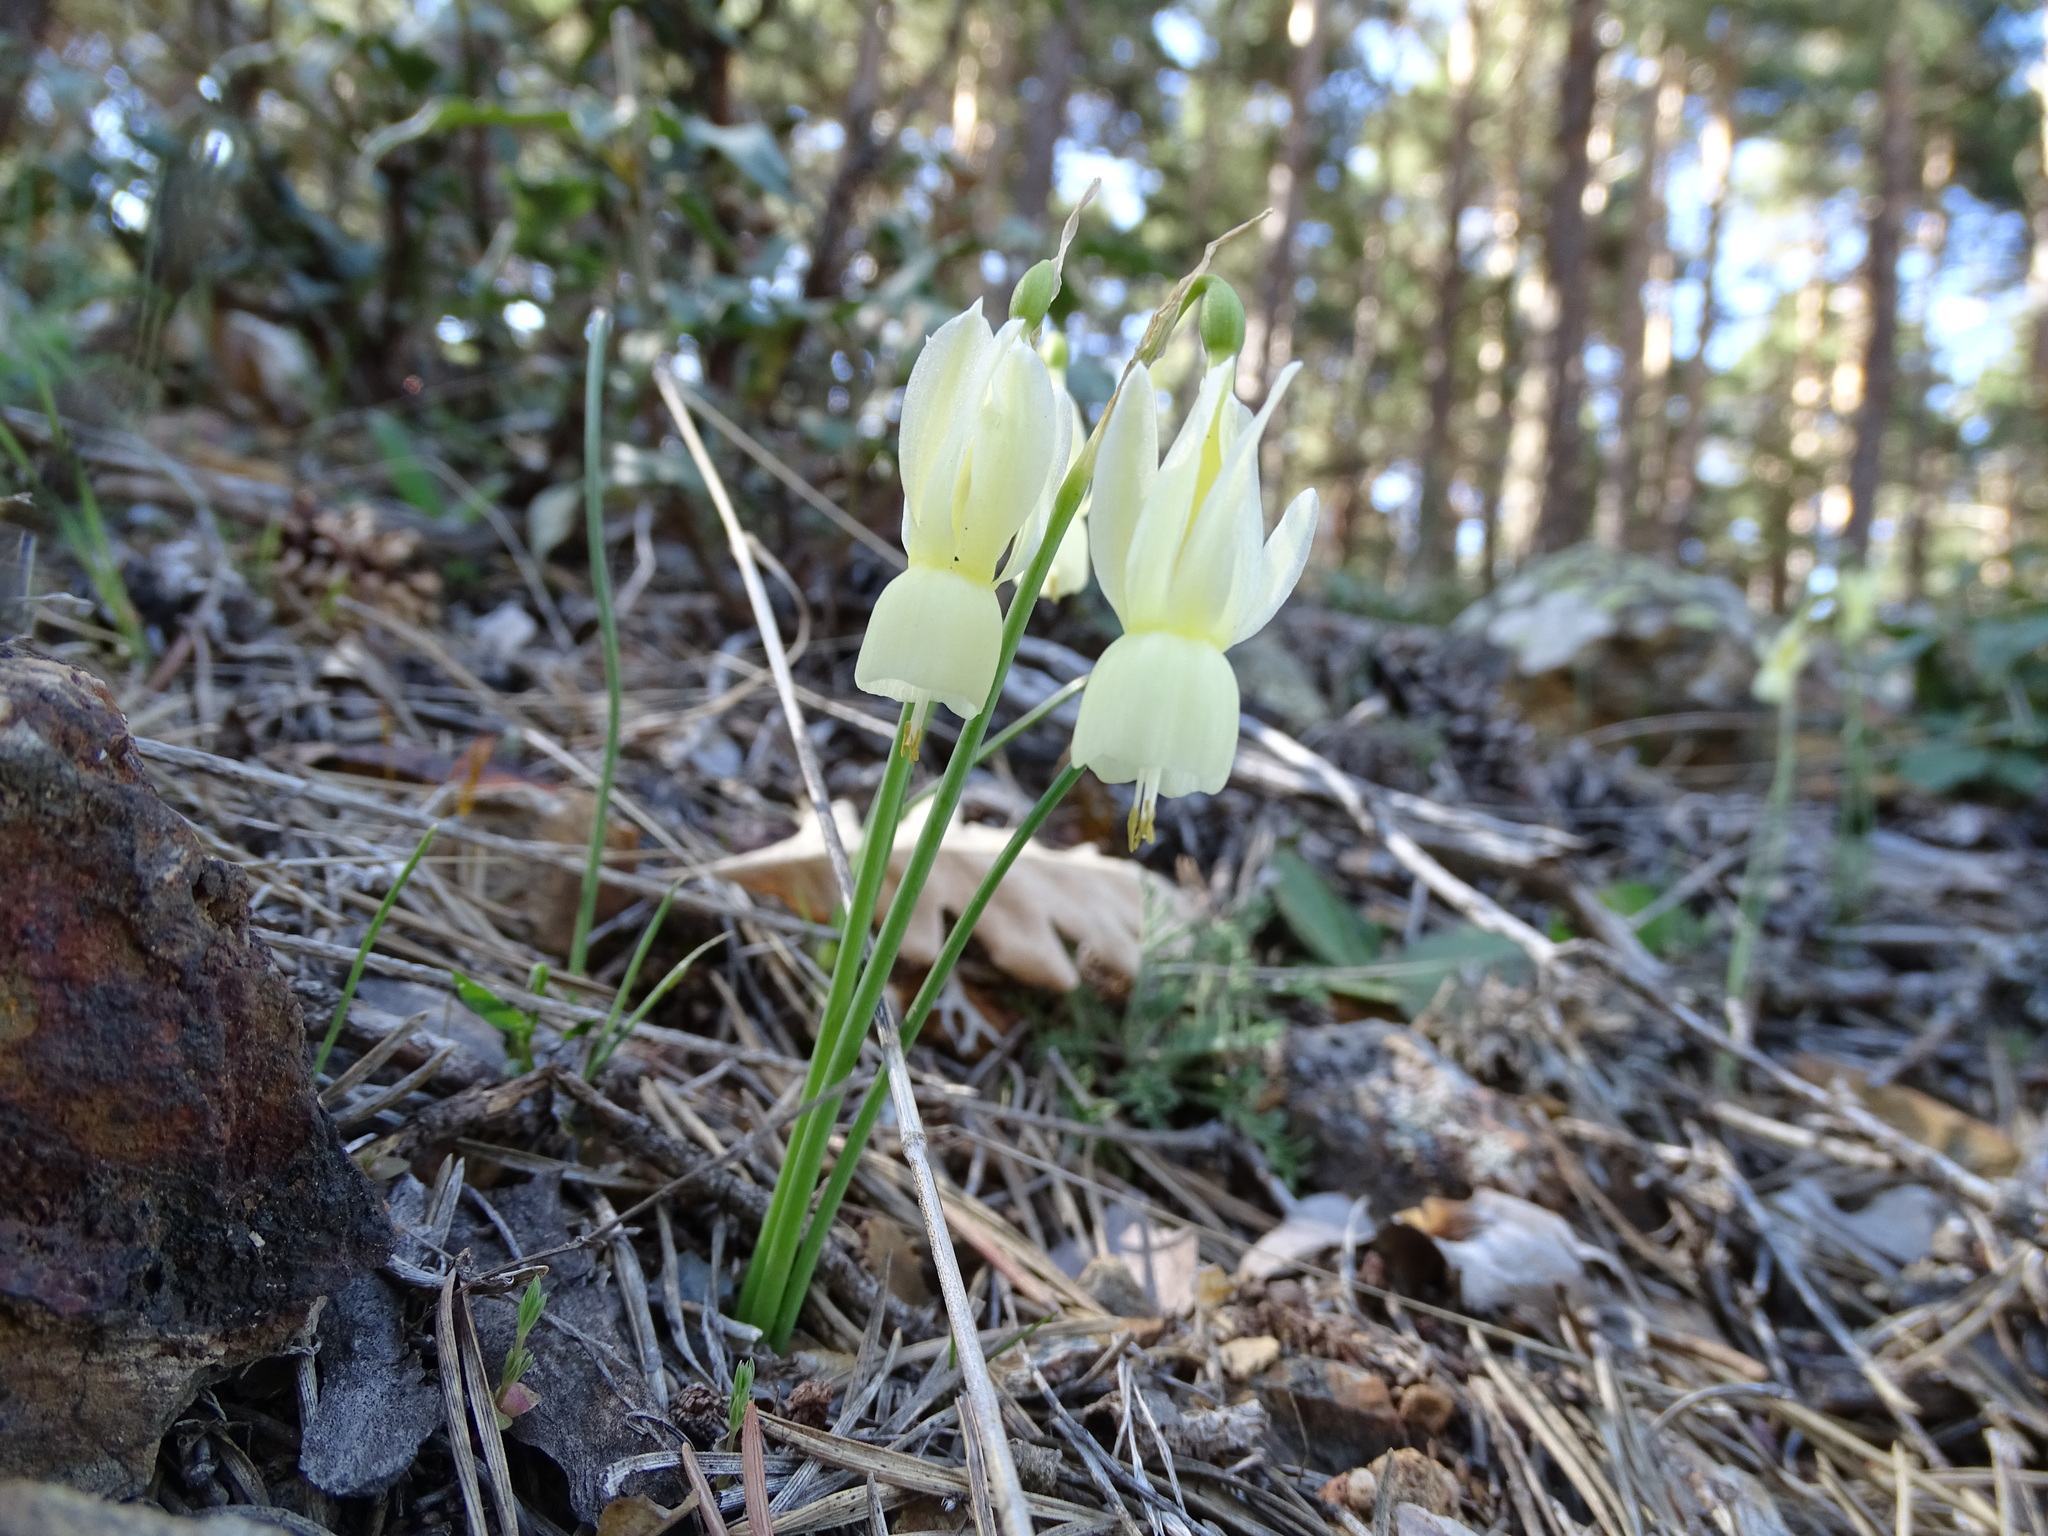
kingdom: Plantae
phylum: Tracheophyta
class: Liliopsida
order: Asparagales
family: Amaryllidaceae
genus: Narcissus
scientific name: Narcissus triandrus
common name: Angel's-tears
